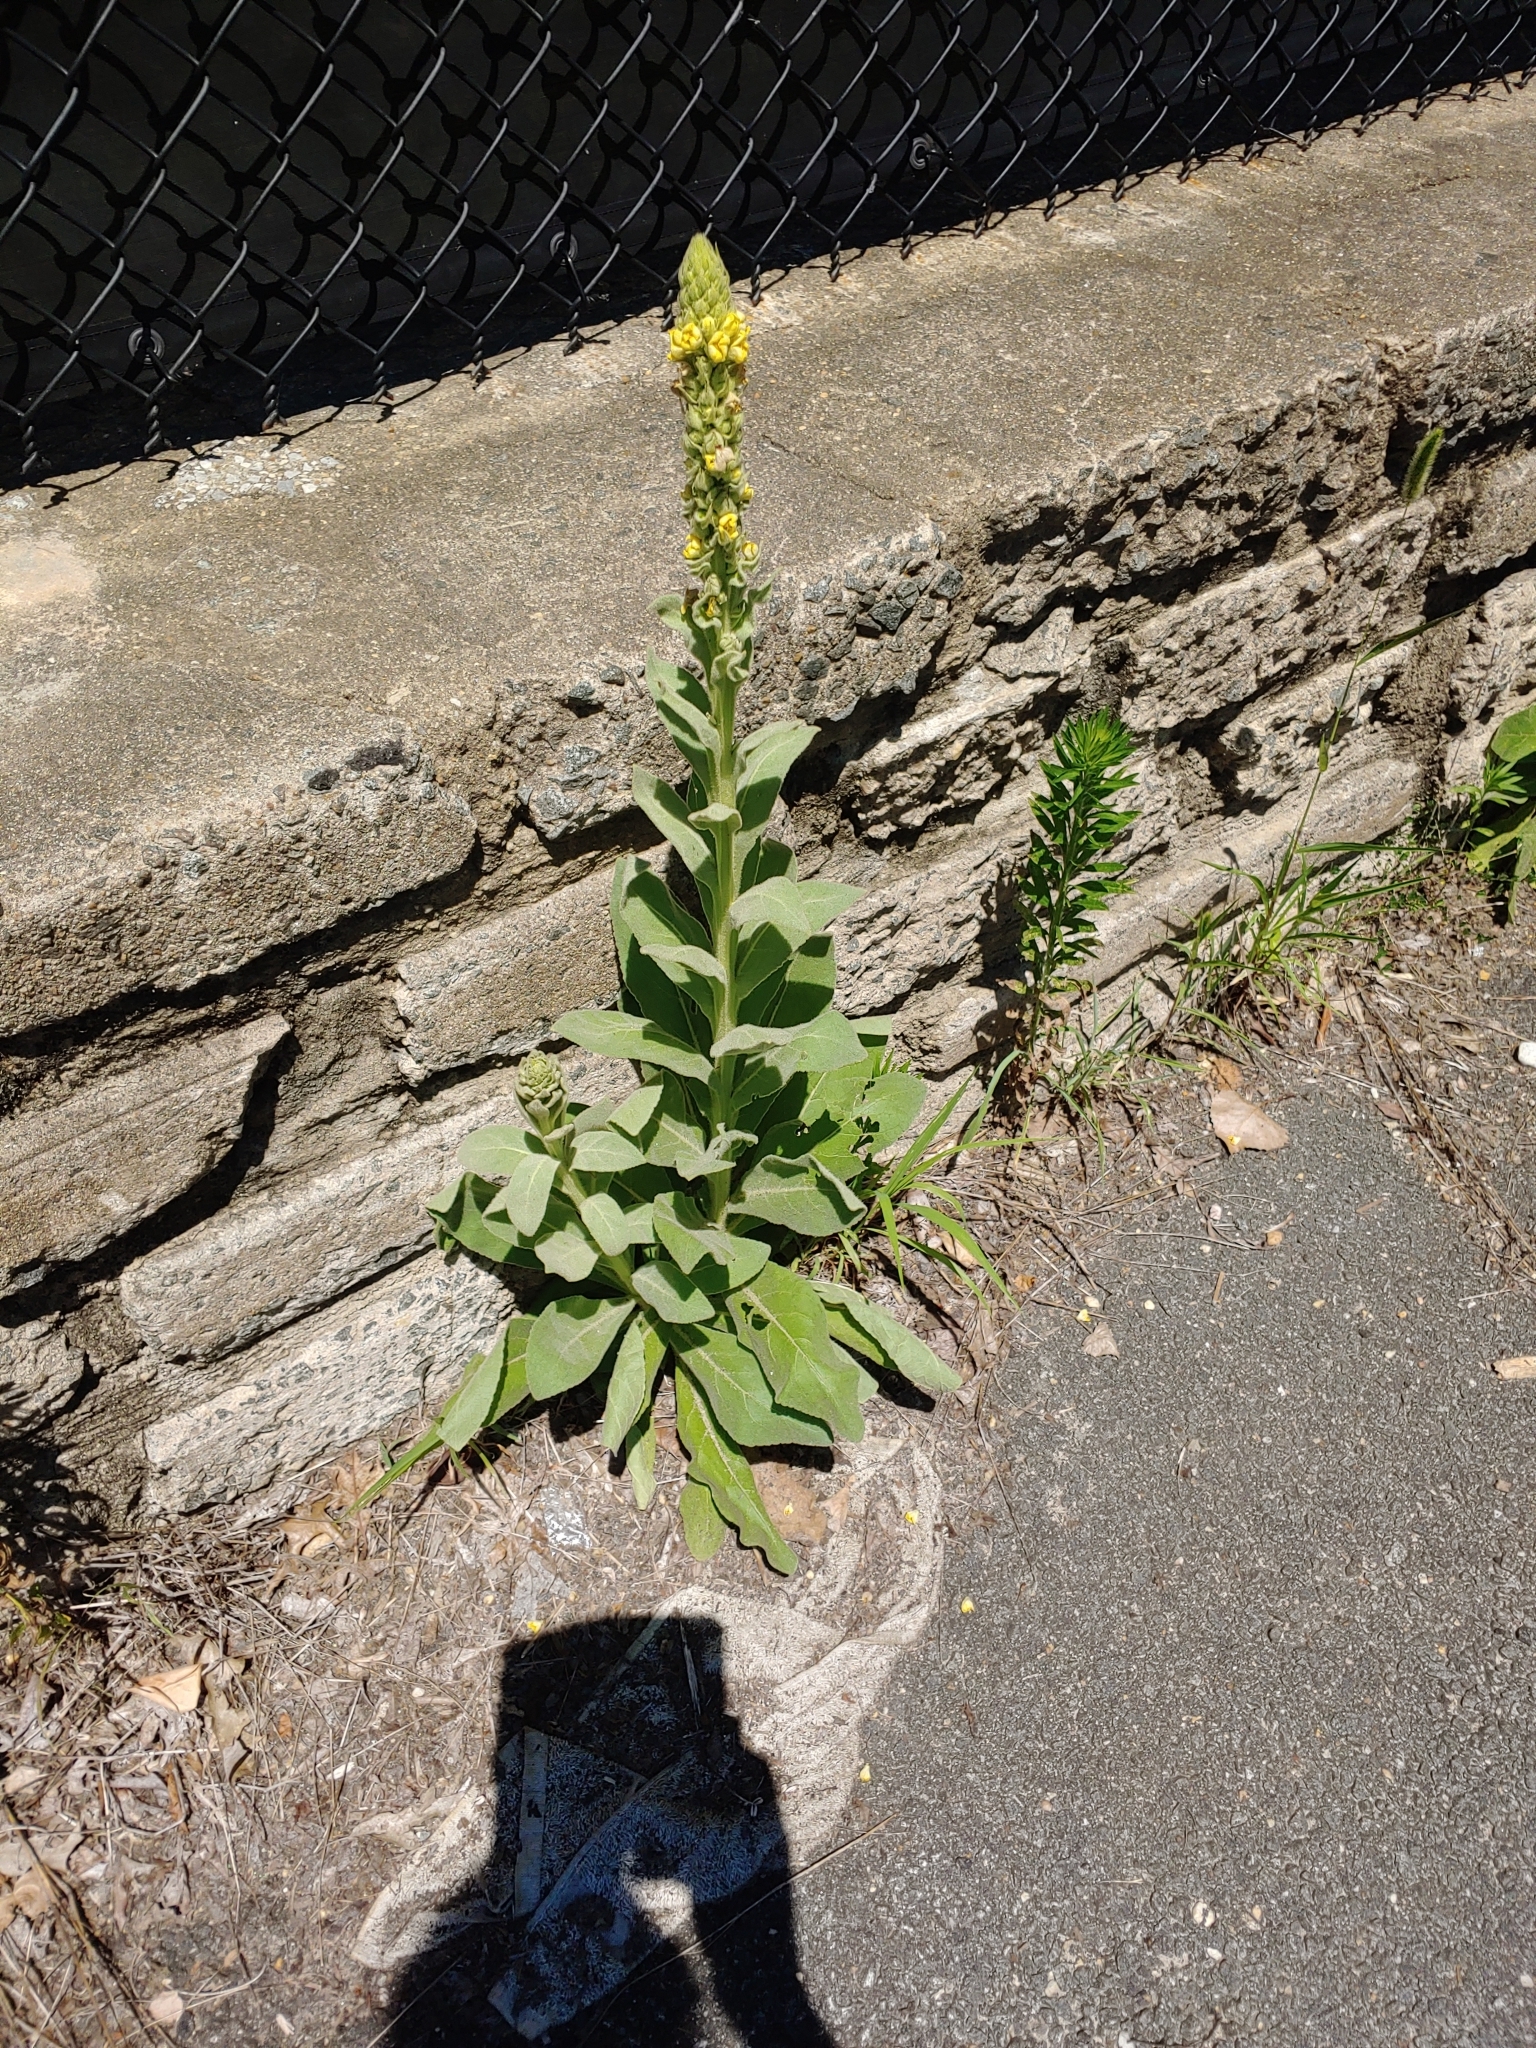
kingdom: Plantae
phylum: Tracheophyta
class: Magnoliopsida
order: Lamiales
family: Scrophulariaceae
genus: Verbascum
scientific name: Verbascum thapsus
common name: Common mullein
